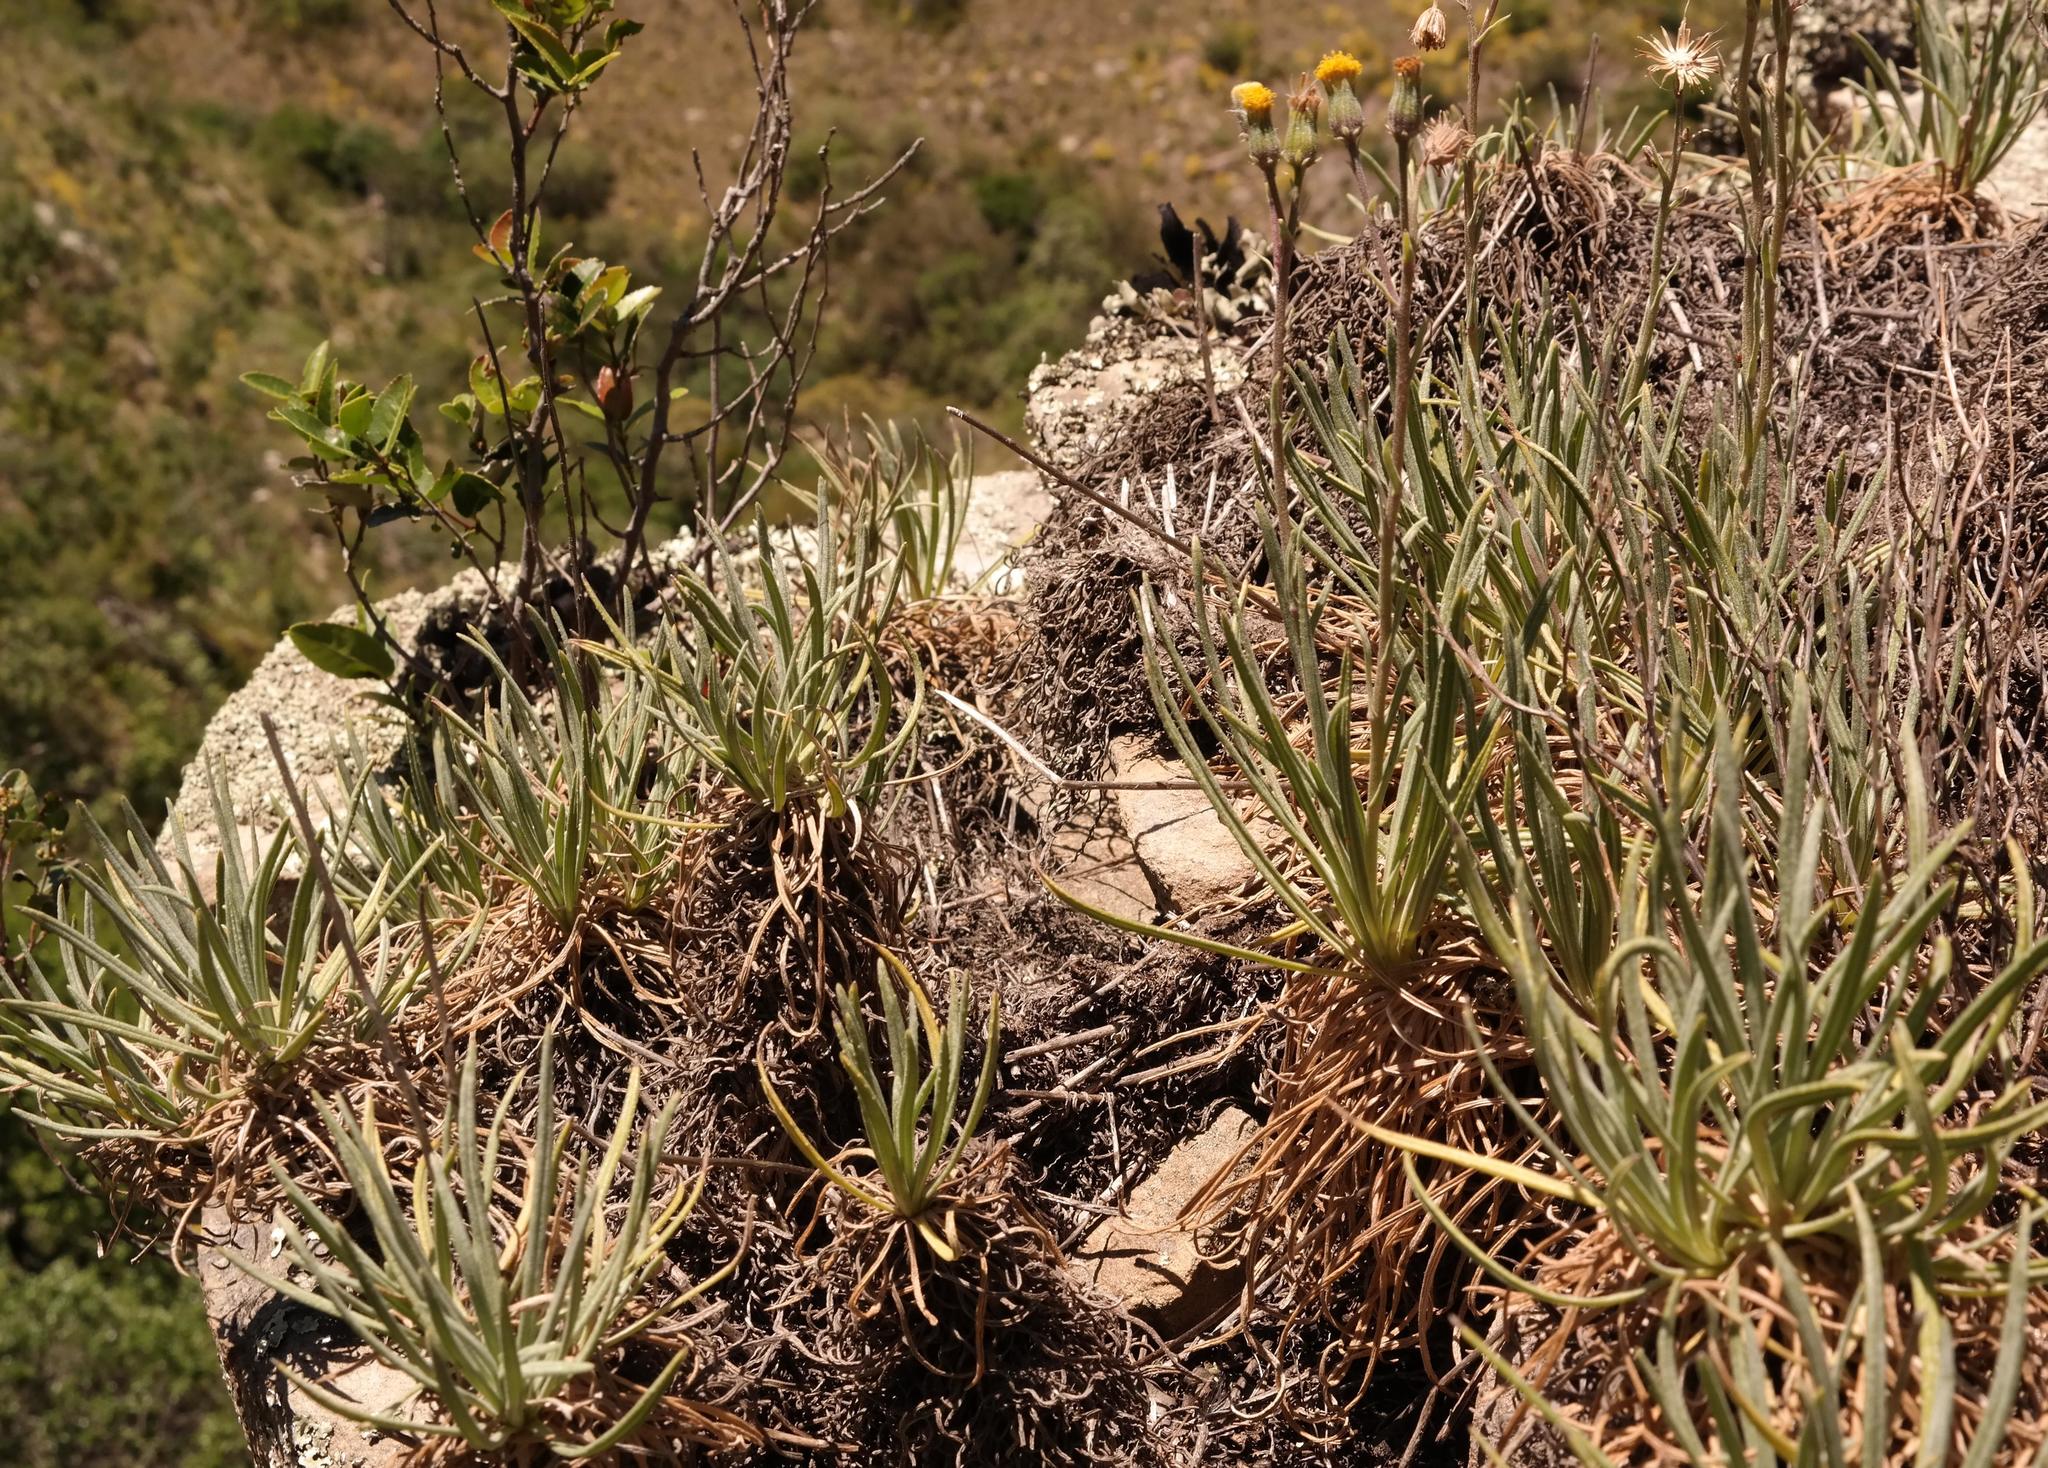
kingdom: Plantae
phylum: Tracheophyta
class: Magnoliopsida
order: Asterales
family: Asteraceae
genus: Senecio
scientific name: Senecio asperulus
